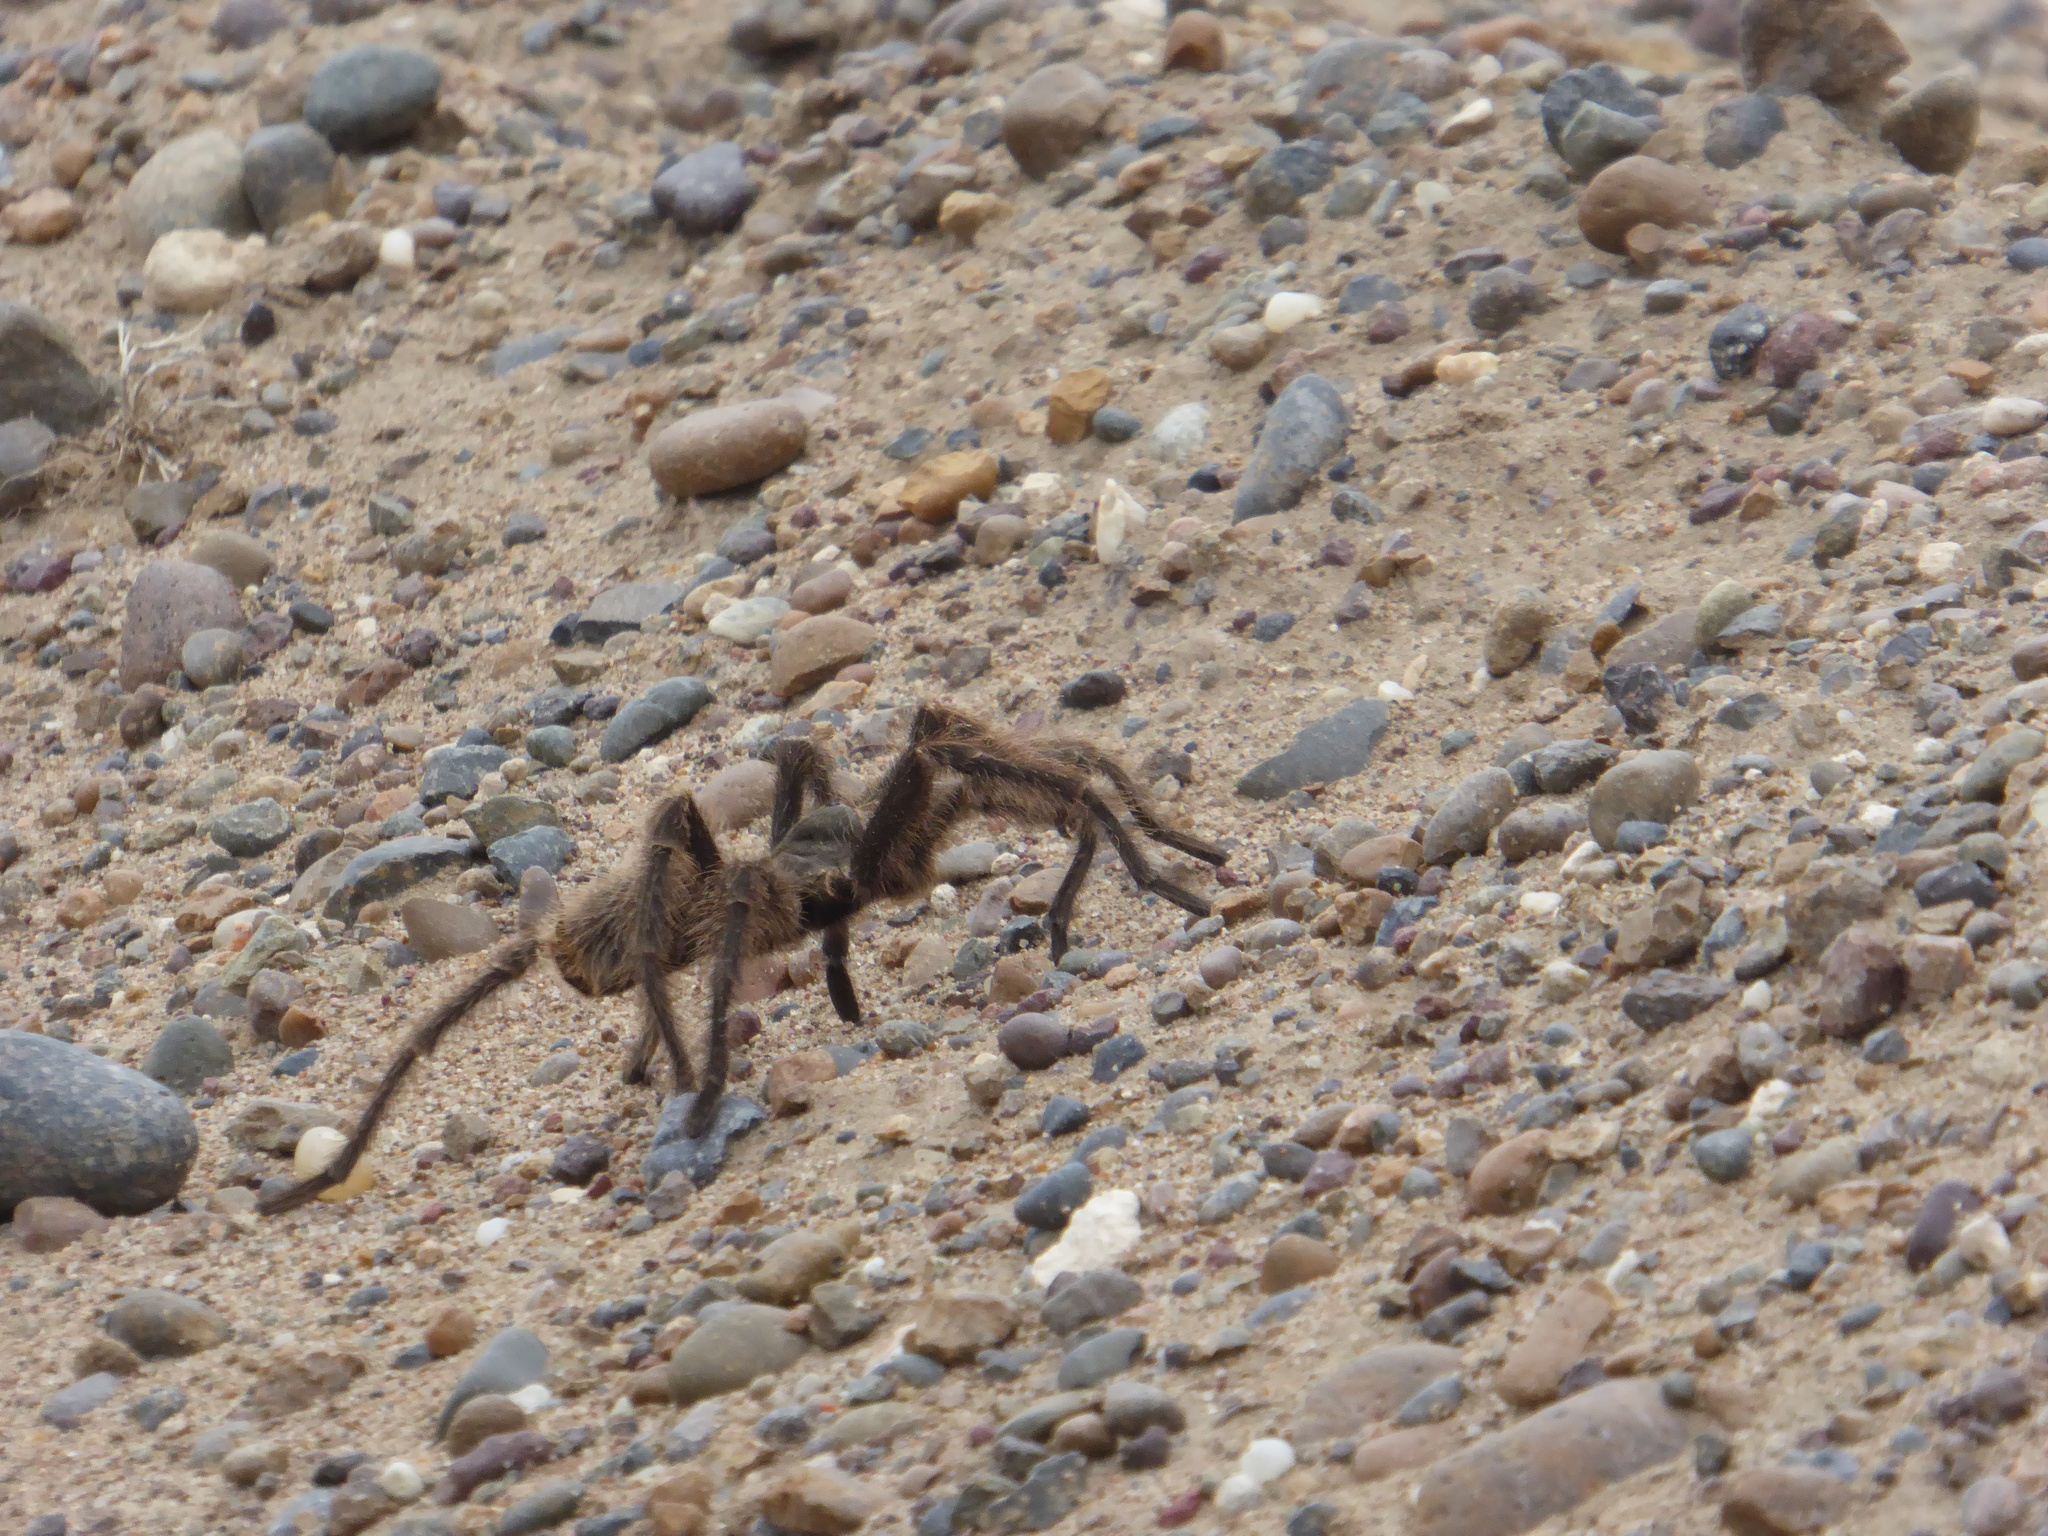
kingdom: Animalia
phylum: Arthropoda
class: Arachnida
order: Araneae
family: Theraphosidae
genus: Grammostola
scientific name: Grammostola doeringi
